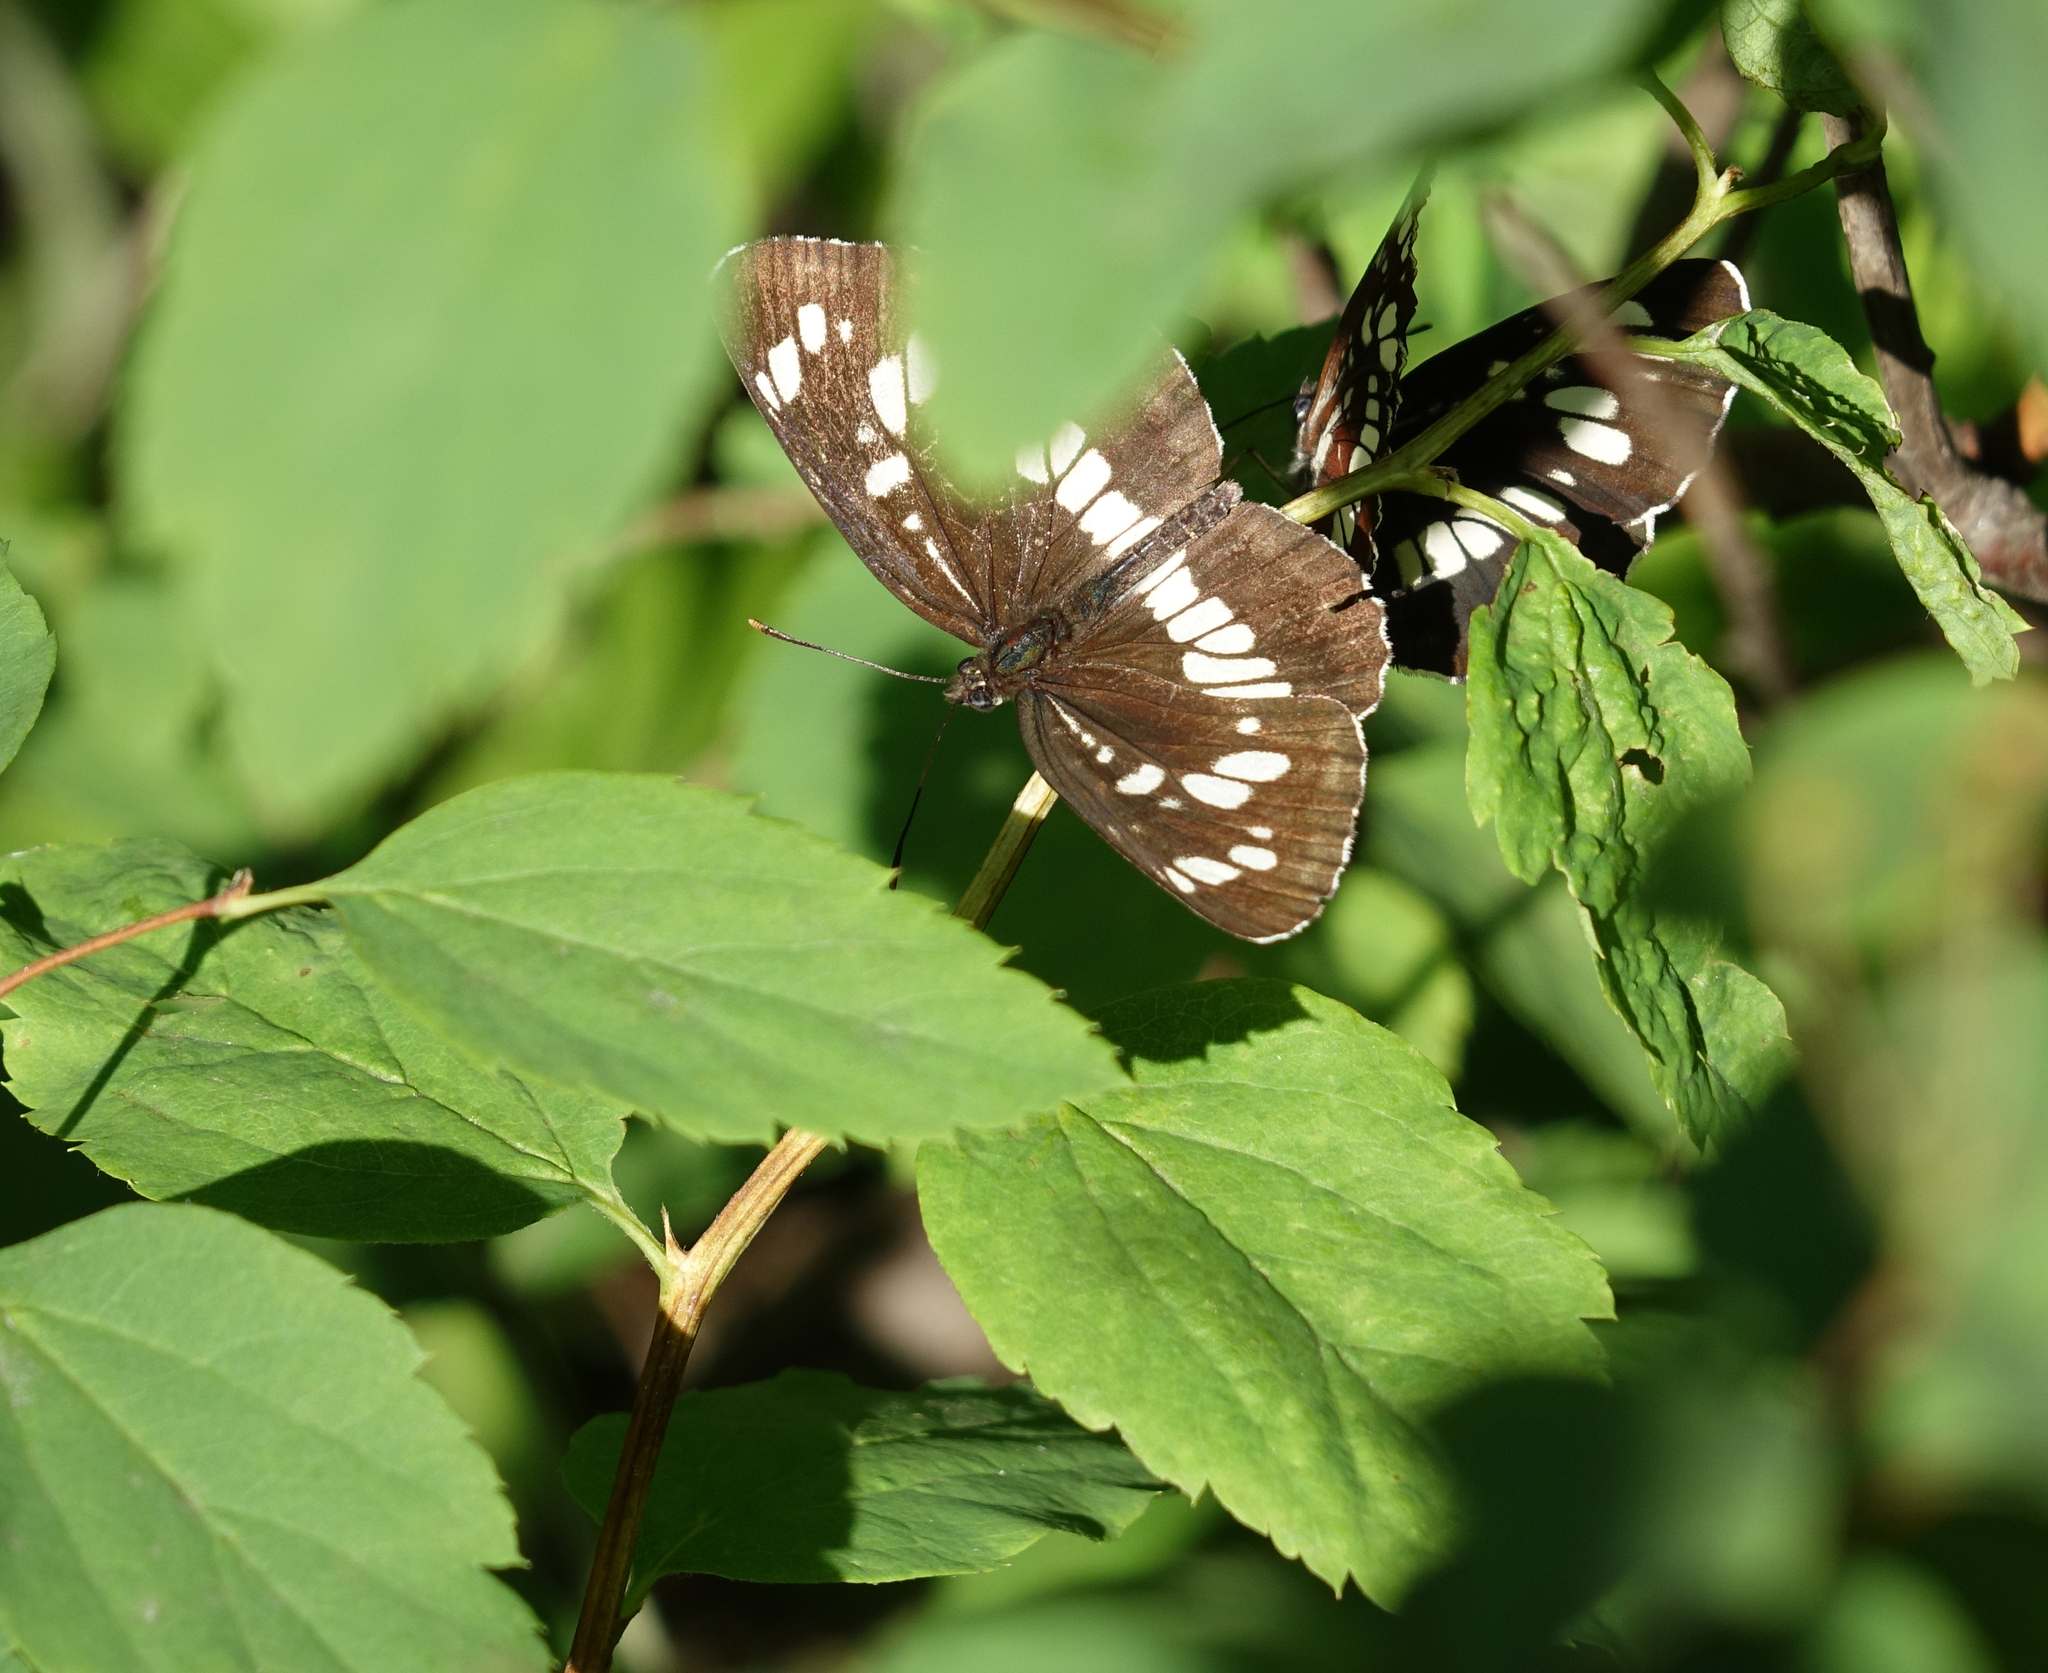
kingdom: Animalia
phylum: Arthropoda
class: Insecta
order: Lepidoptera
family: Nymphalidae
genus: Neptis
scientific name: Neptis rivularis
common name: Hungarian glider
